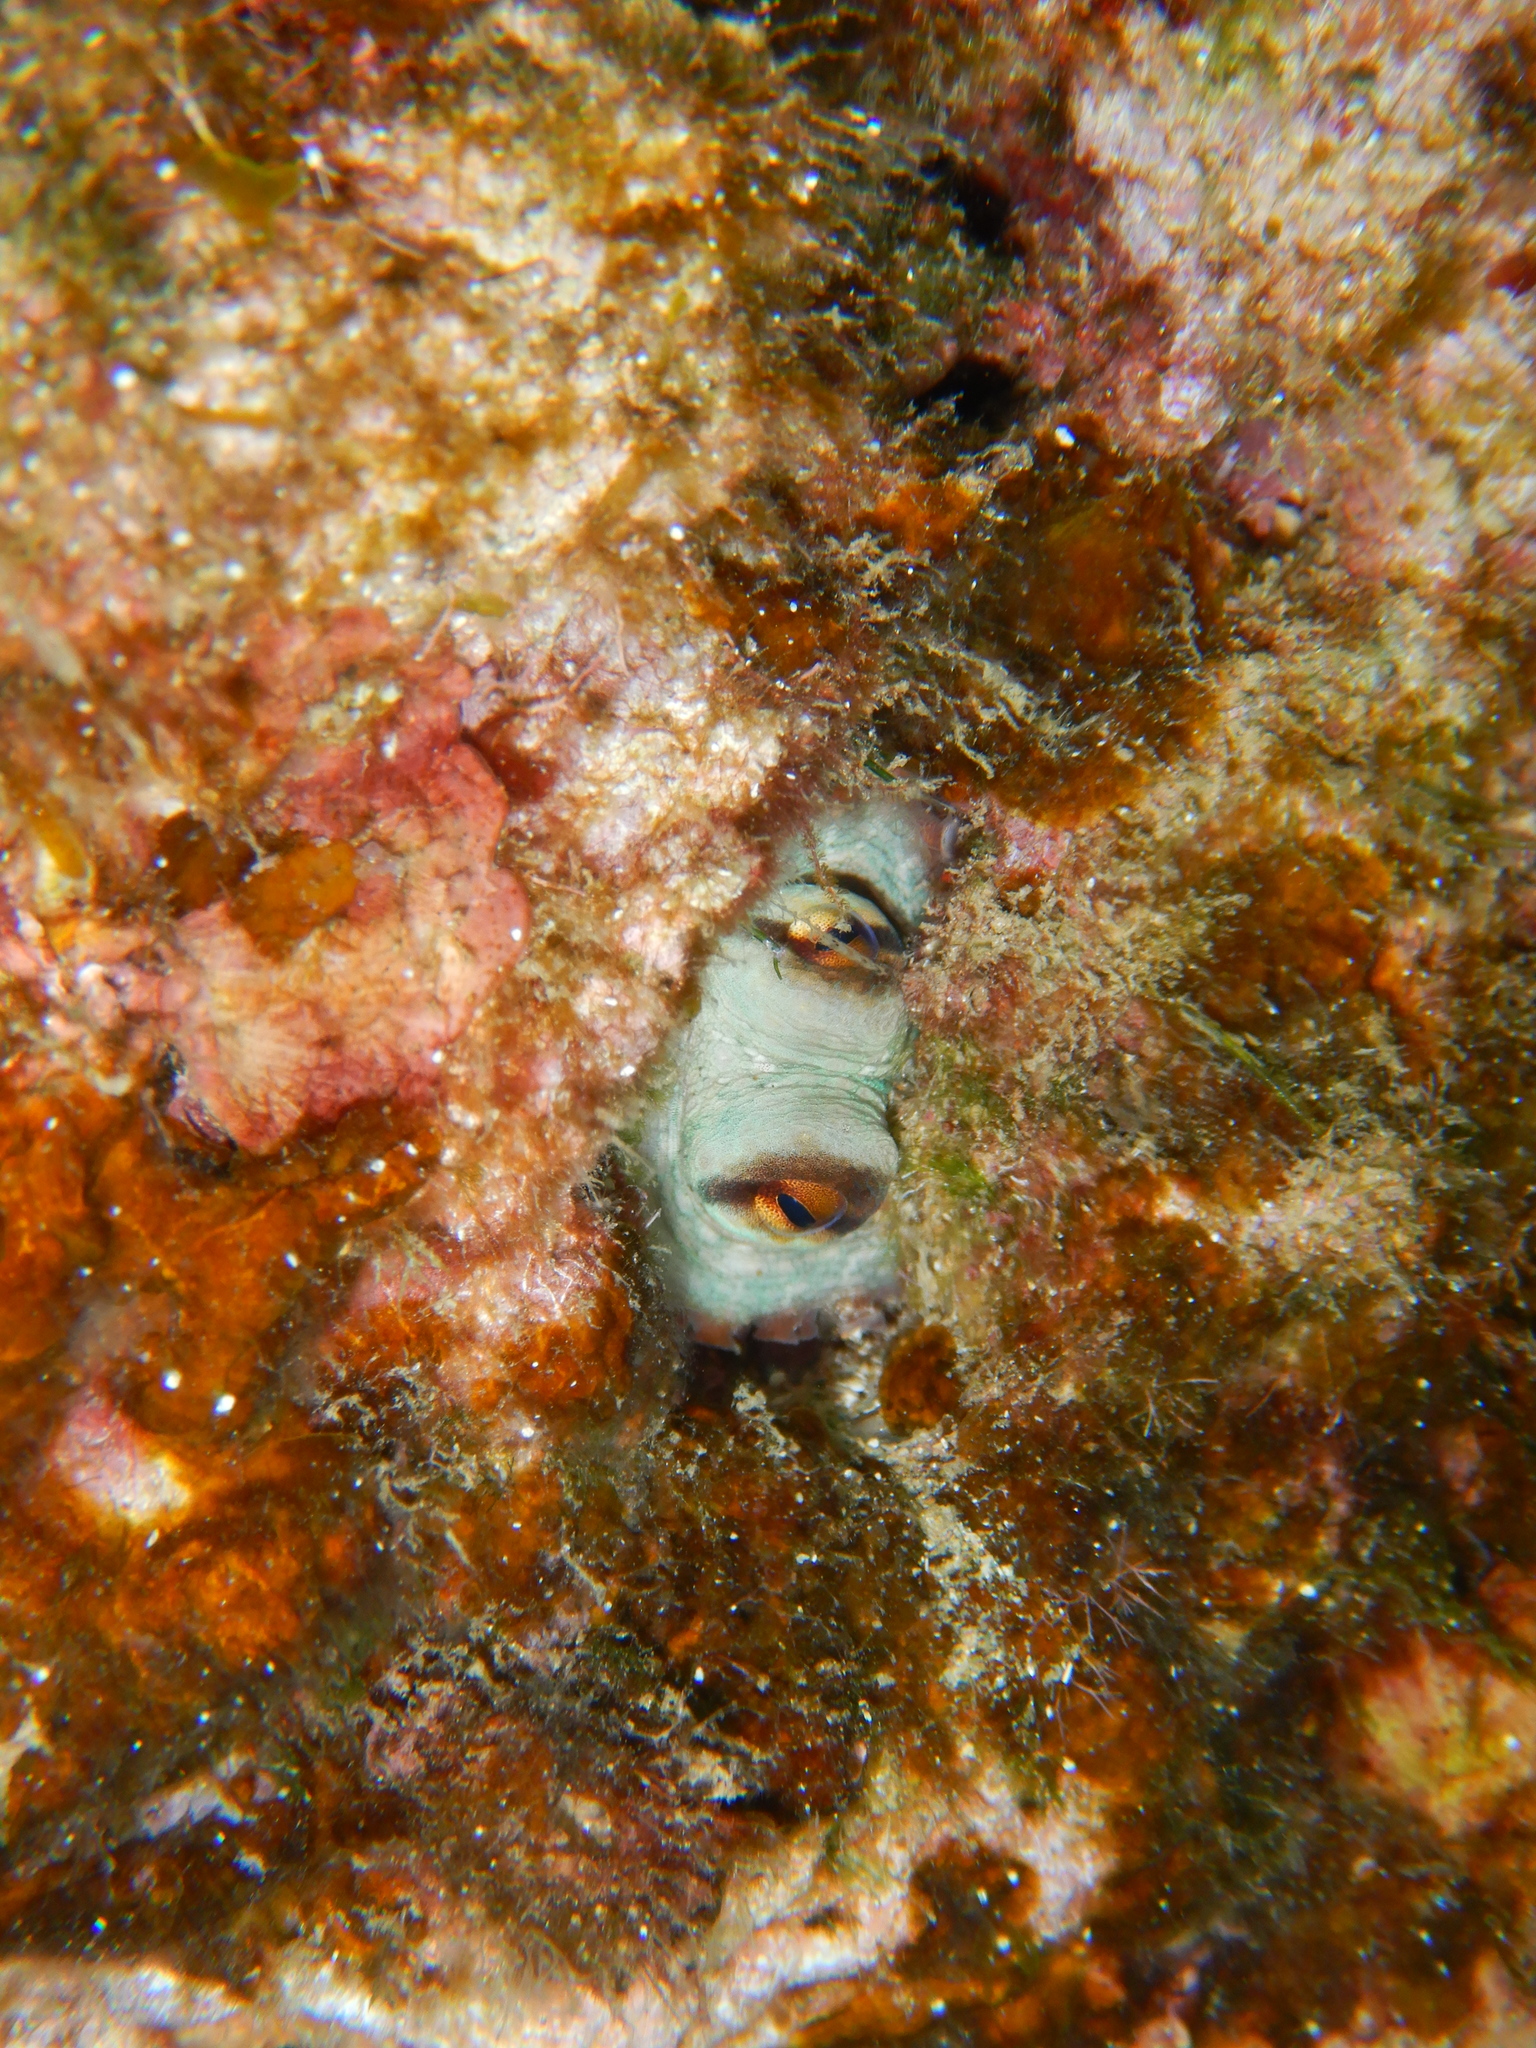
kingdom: Animalia
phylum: Mollusca
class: Cephalopoda
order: Octopoda
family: Octopodidae
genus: Octopus
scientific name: Octopus vulgaris
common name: Common octopus
